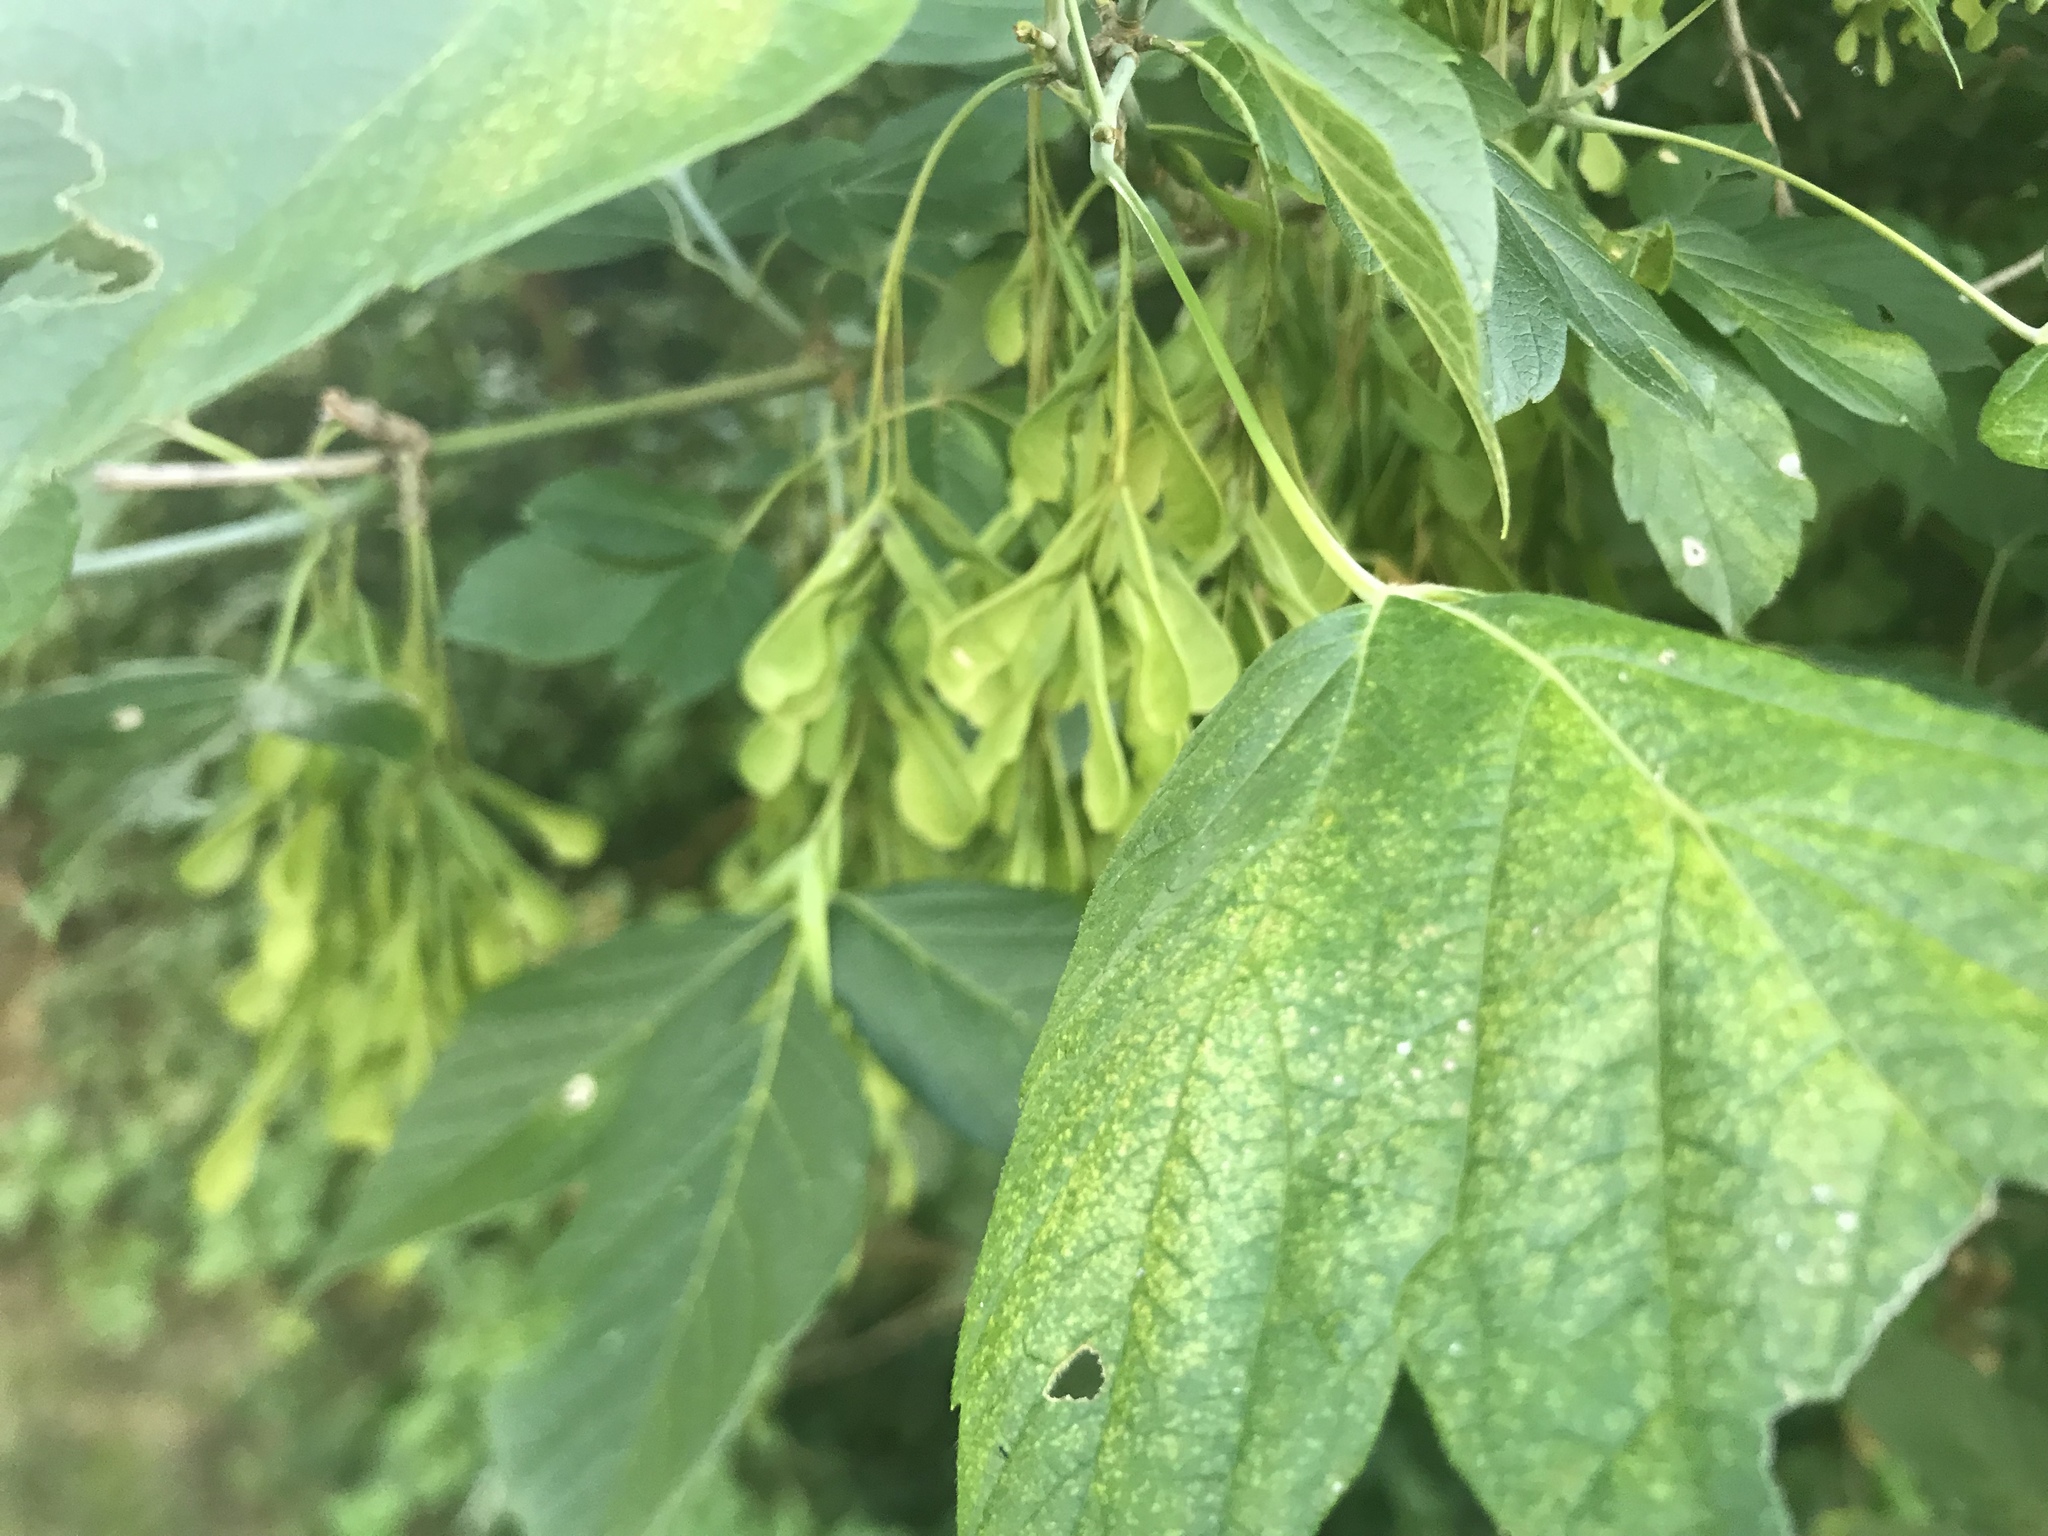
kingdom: Plantae
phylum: Tracheophyta
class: Magnoliopsida
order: Sapindales
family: Sapindaceae
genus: Acer
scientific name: Acer negundo
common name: Ashleaf maple
